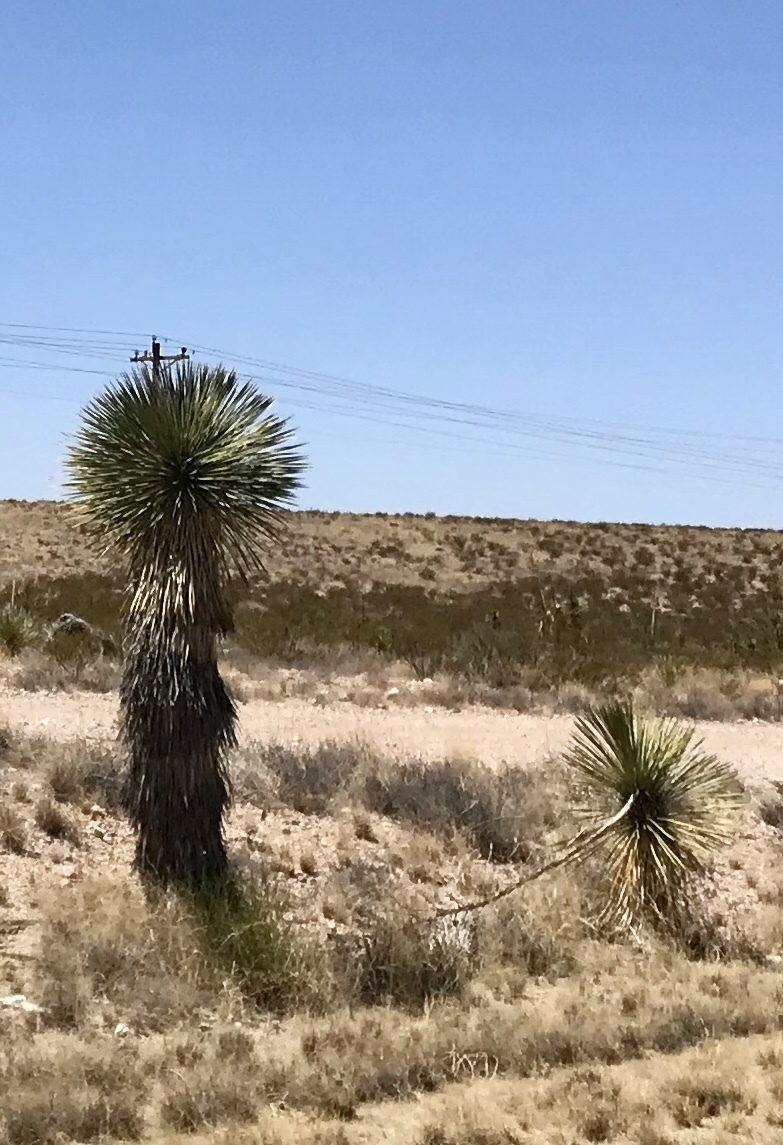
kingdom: Plantae
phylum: Tracheophyta
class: Liliopsida
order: Asparagales
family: Asparagaceae
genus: Yucca
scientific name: Yucca elata
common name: Palmella
